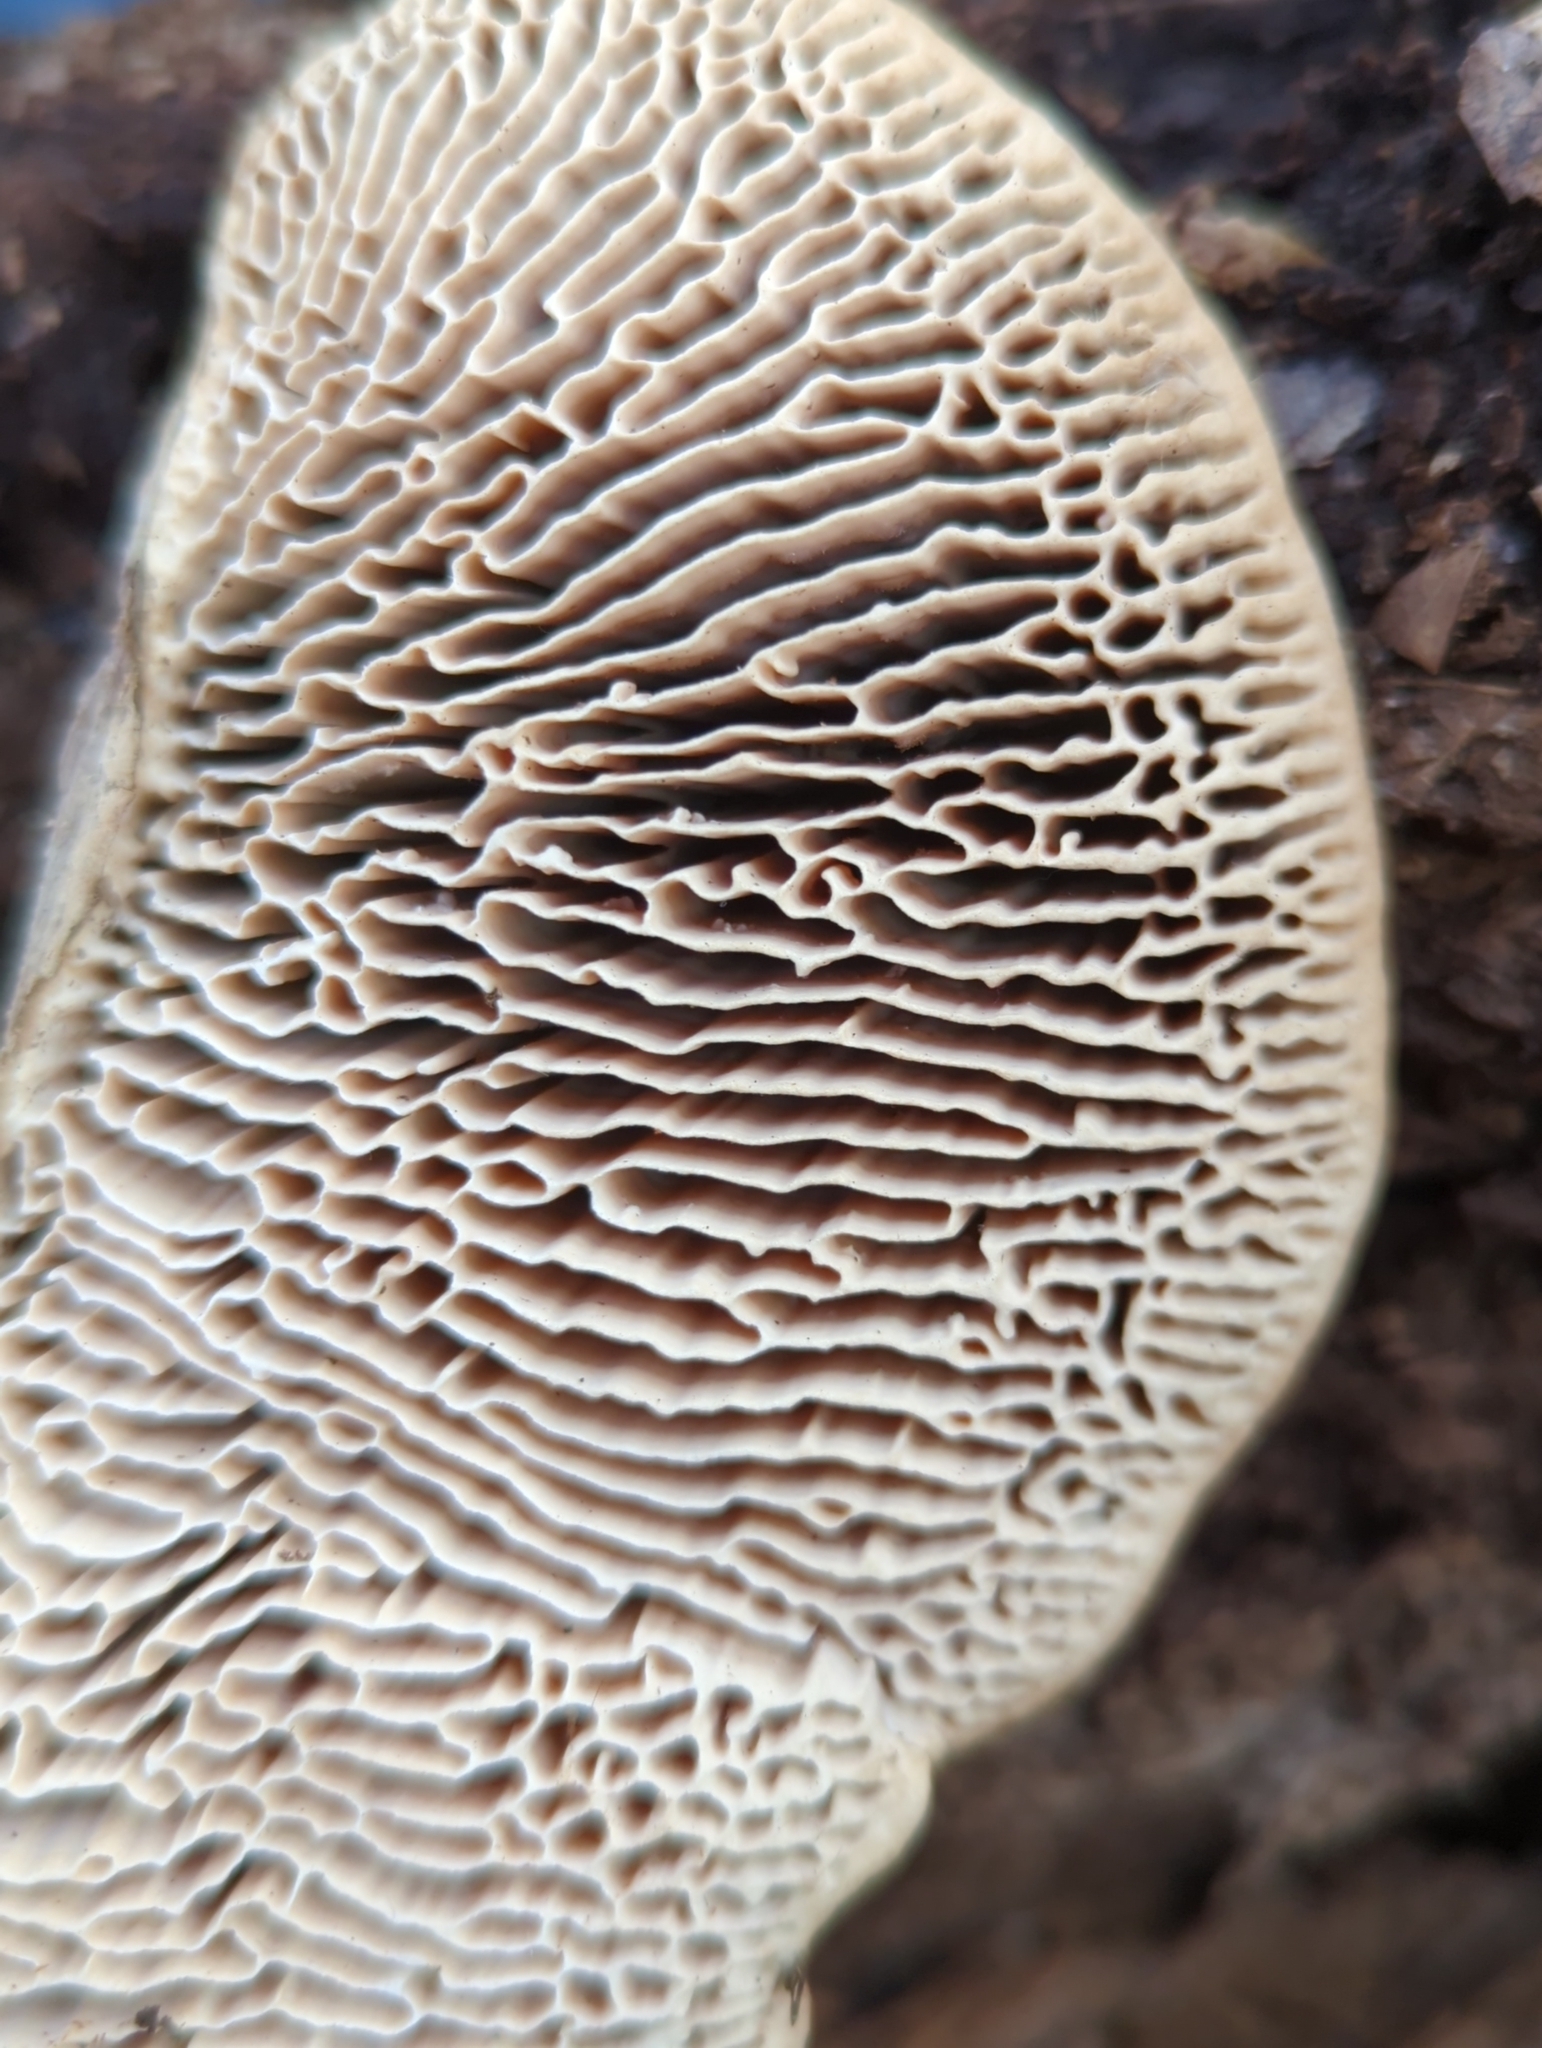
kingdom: Fungi
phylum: Basidiomycota
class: Agaricomycetes
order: Polyporales
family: Fomitopsidaceae
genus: Fomitopsis
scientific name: Fomitopsis
